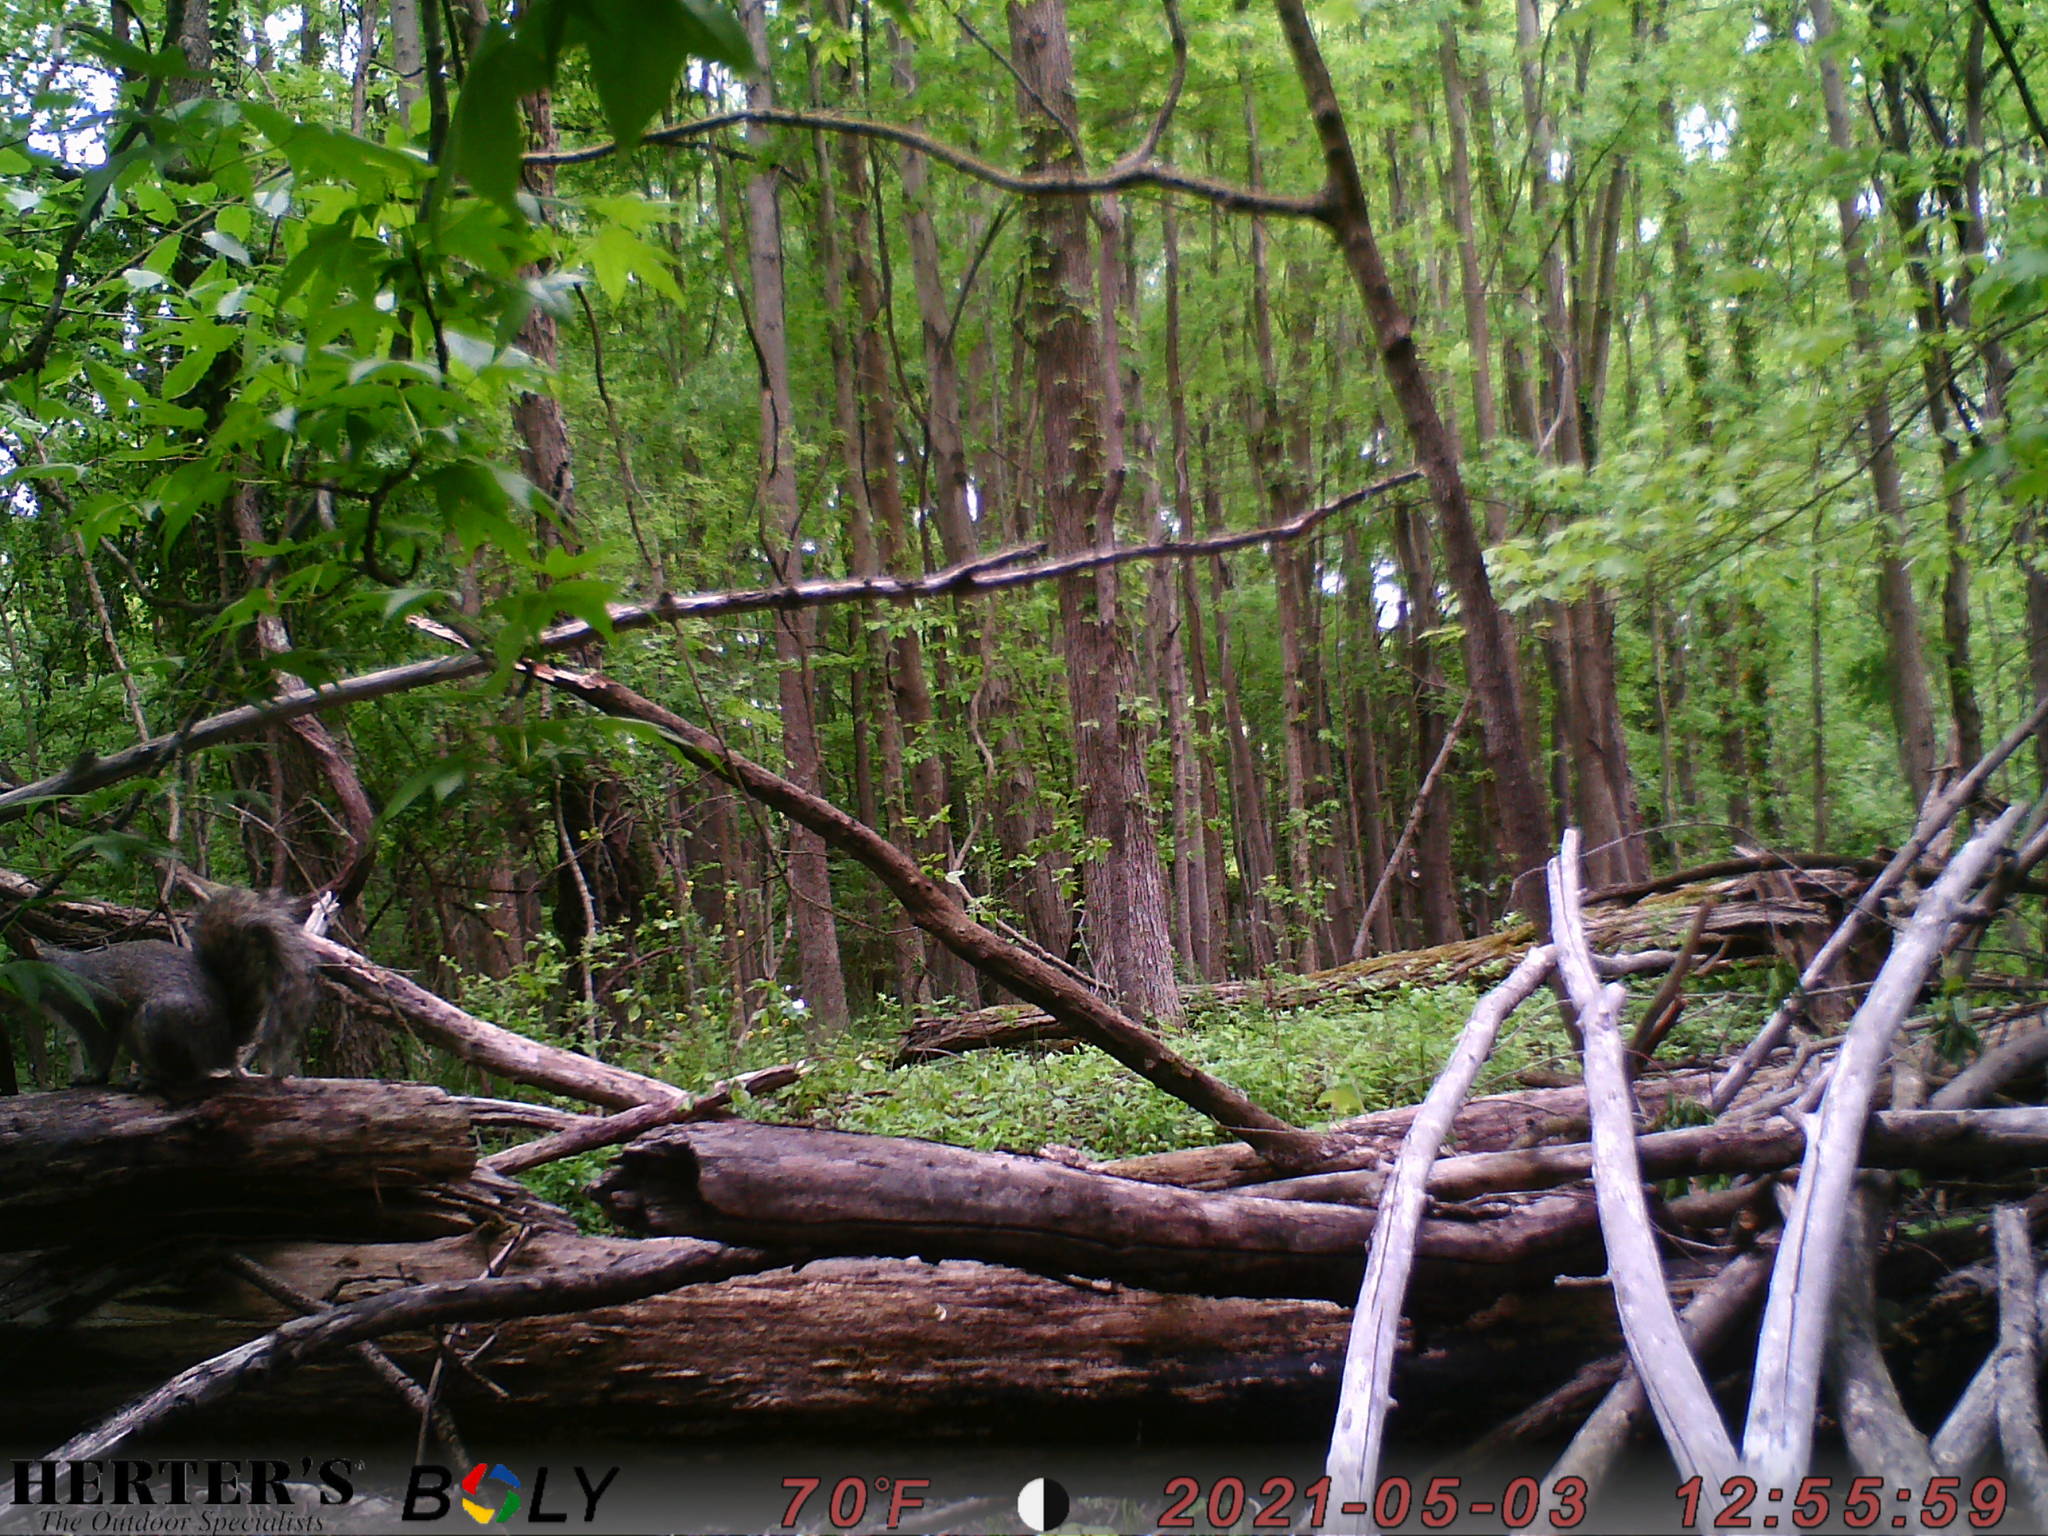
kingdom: Animalia
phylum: Chordata
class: Mammalia
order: Rodentia
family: Sciuridae
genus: Sciurus
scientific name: Sciurus carolinensis
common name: Eastern gray squirrel
